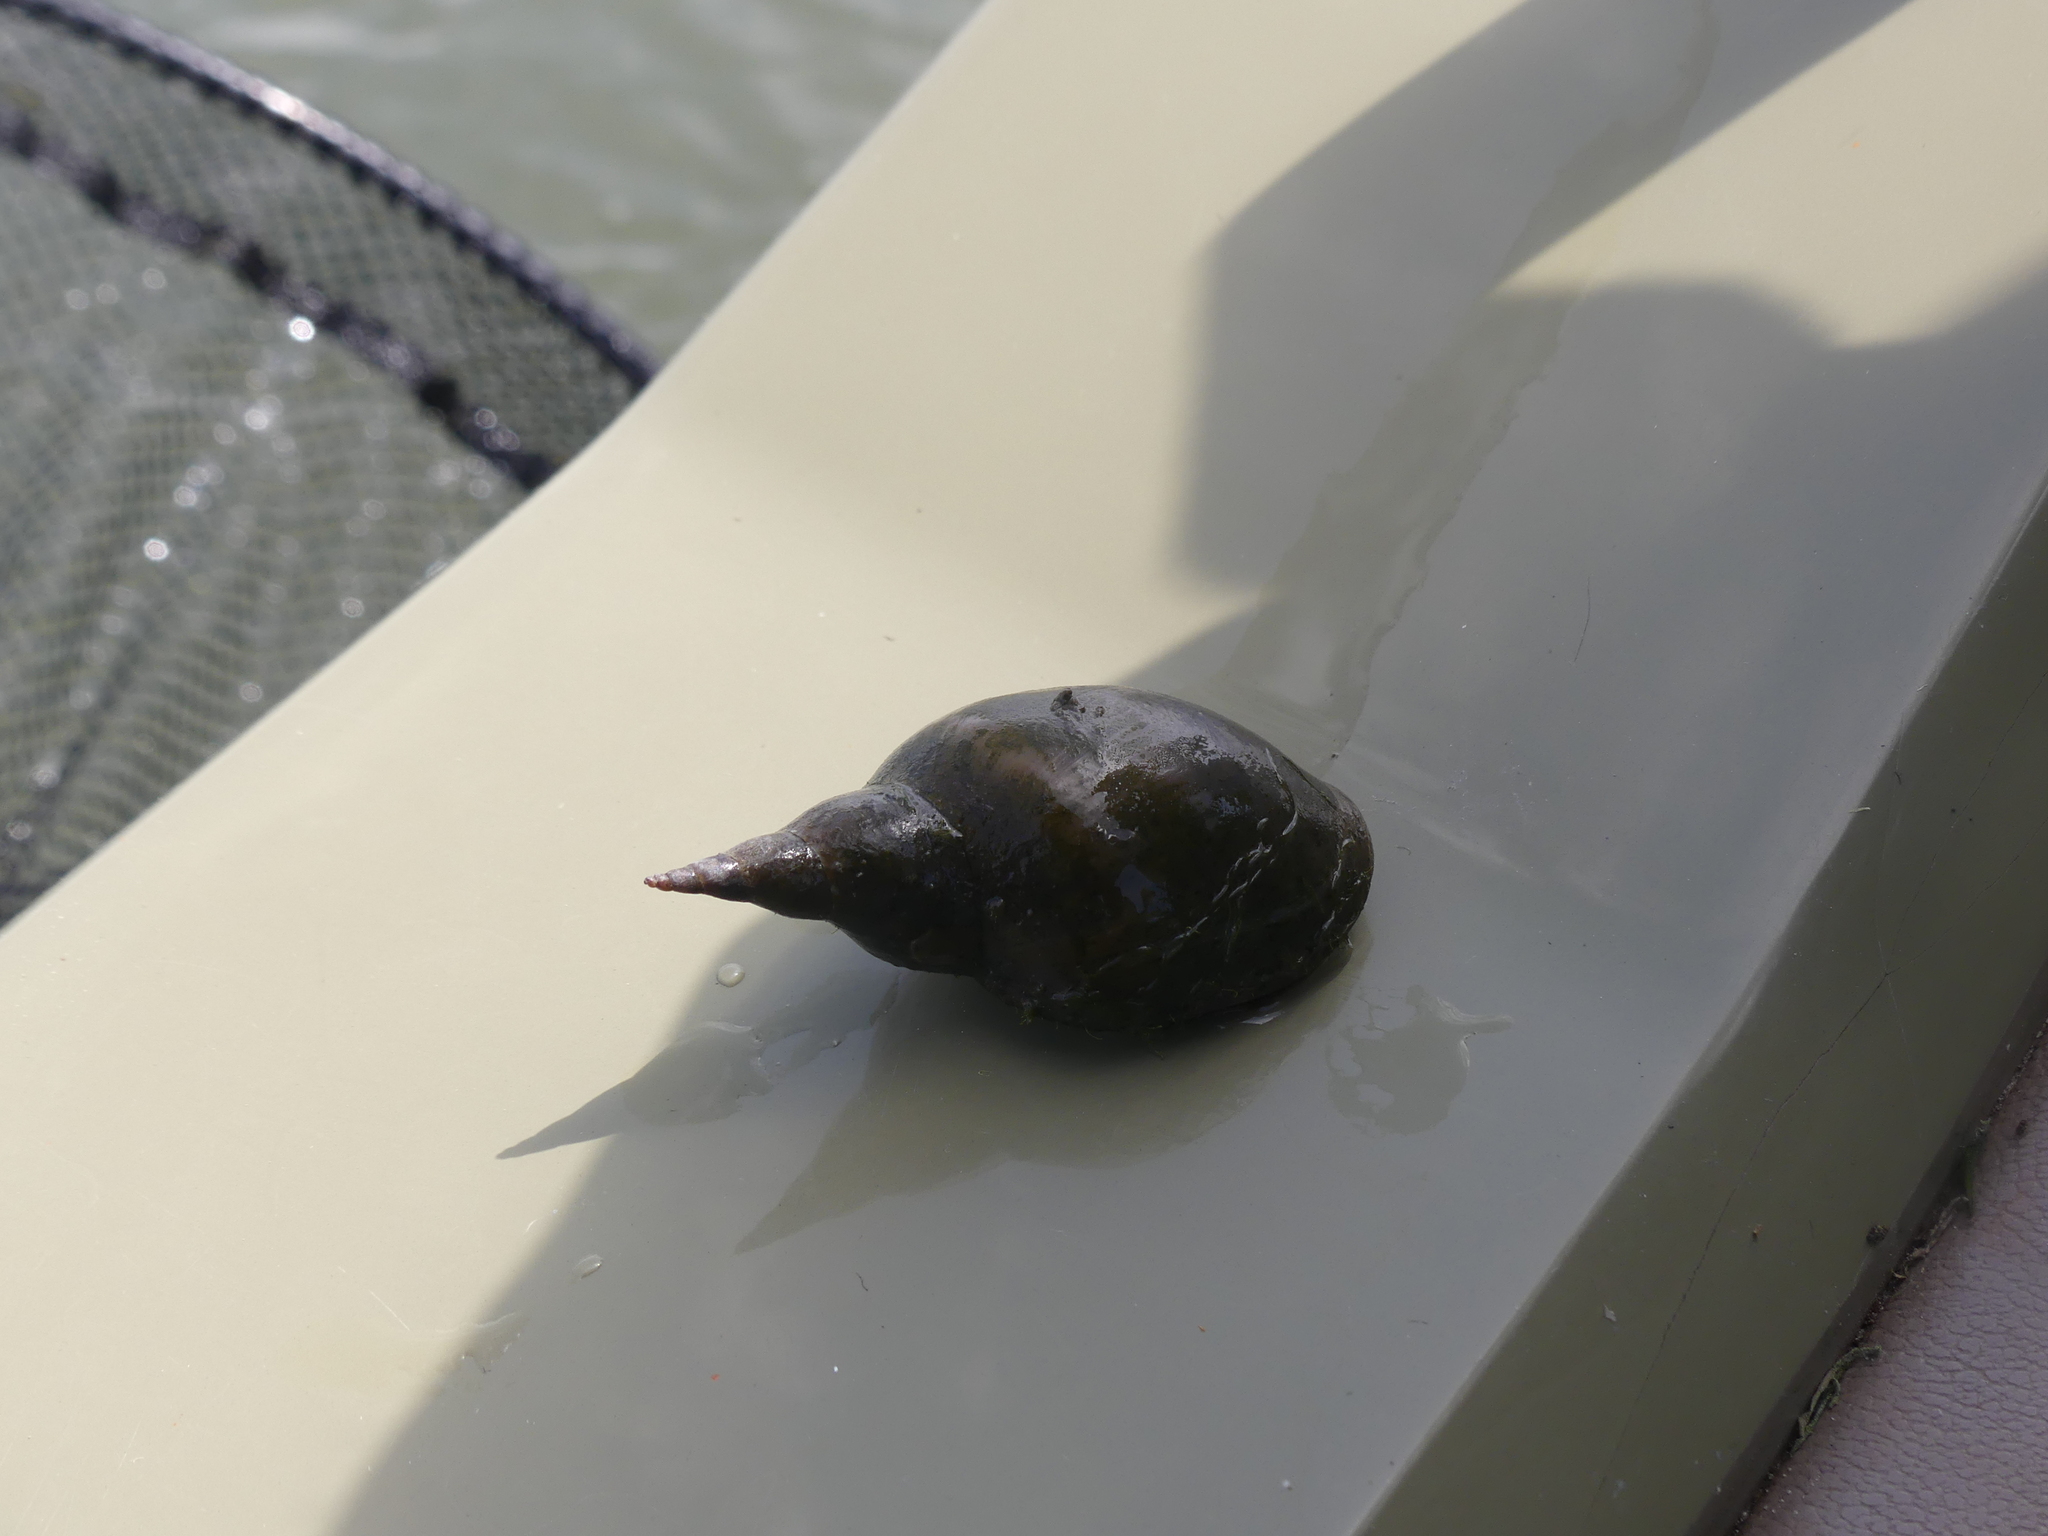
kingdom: Animalia
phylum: Mollusca
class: Gastropoda
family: Lymnaeidae
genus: Lymnaea
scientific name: Lymnaea stagnalis
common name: Great pond snail
